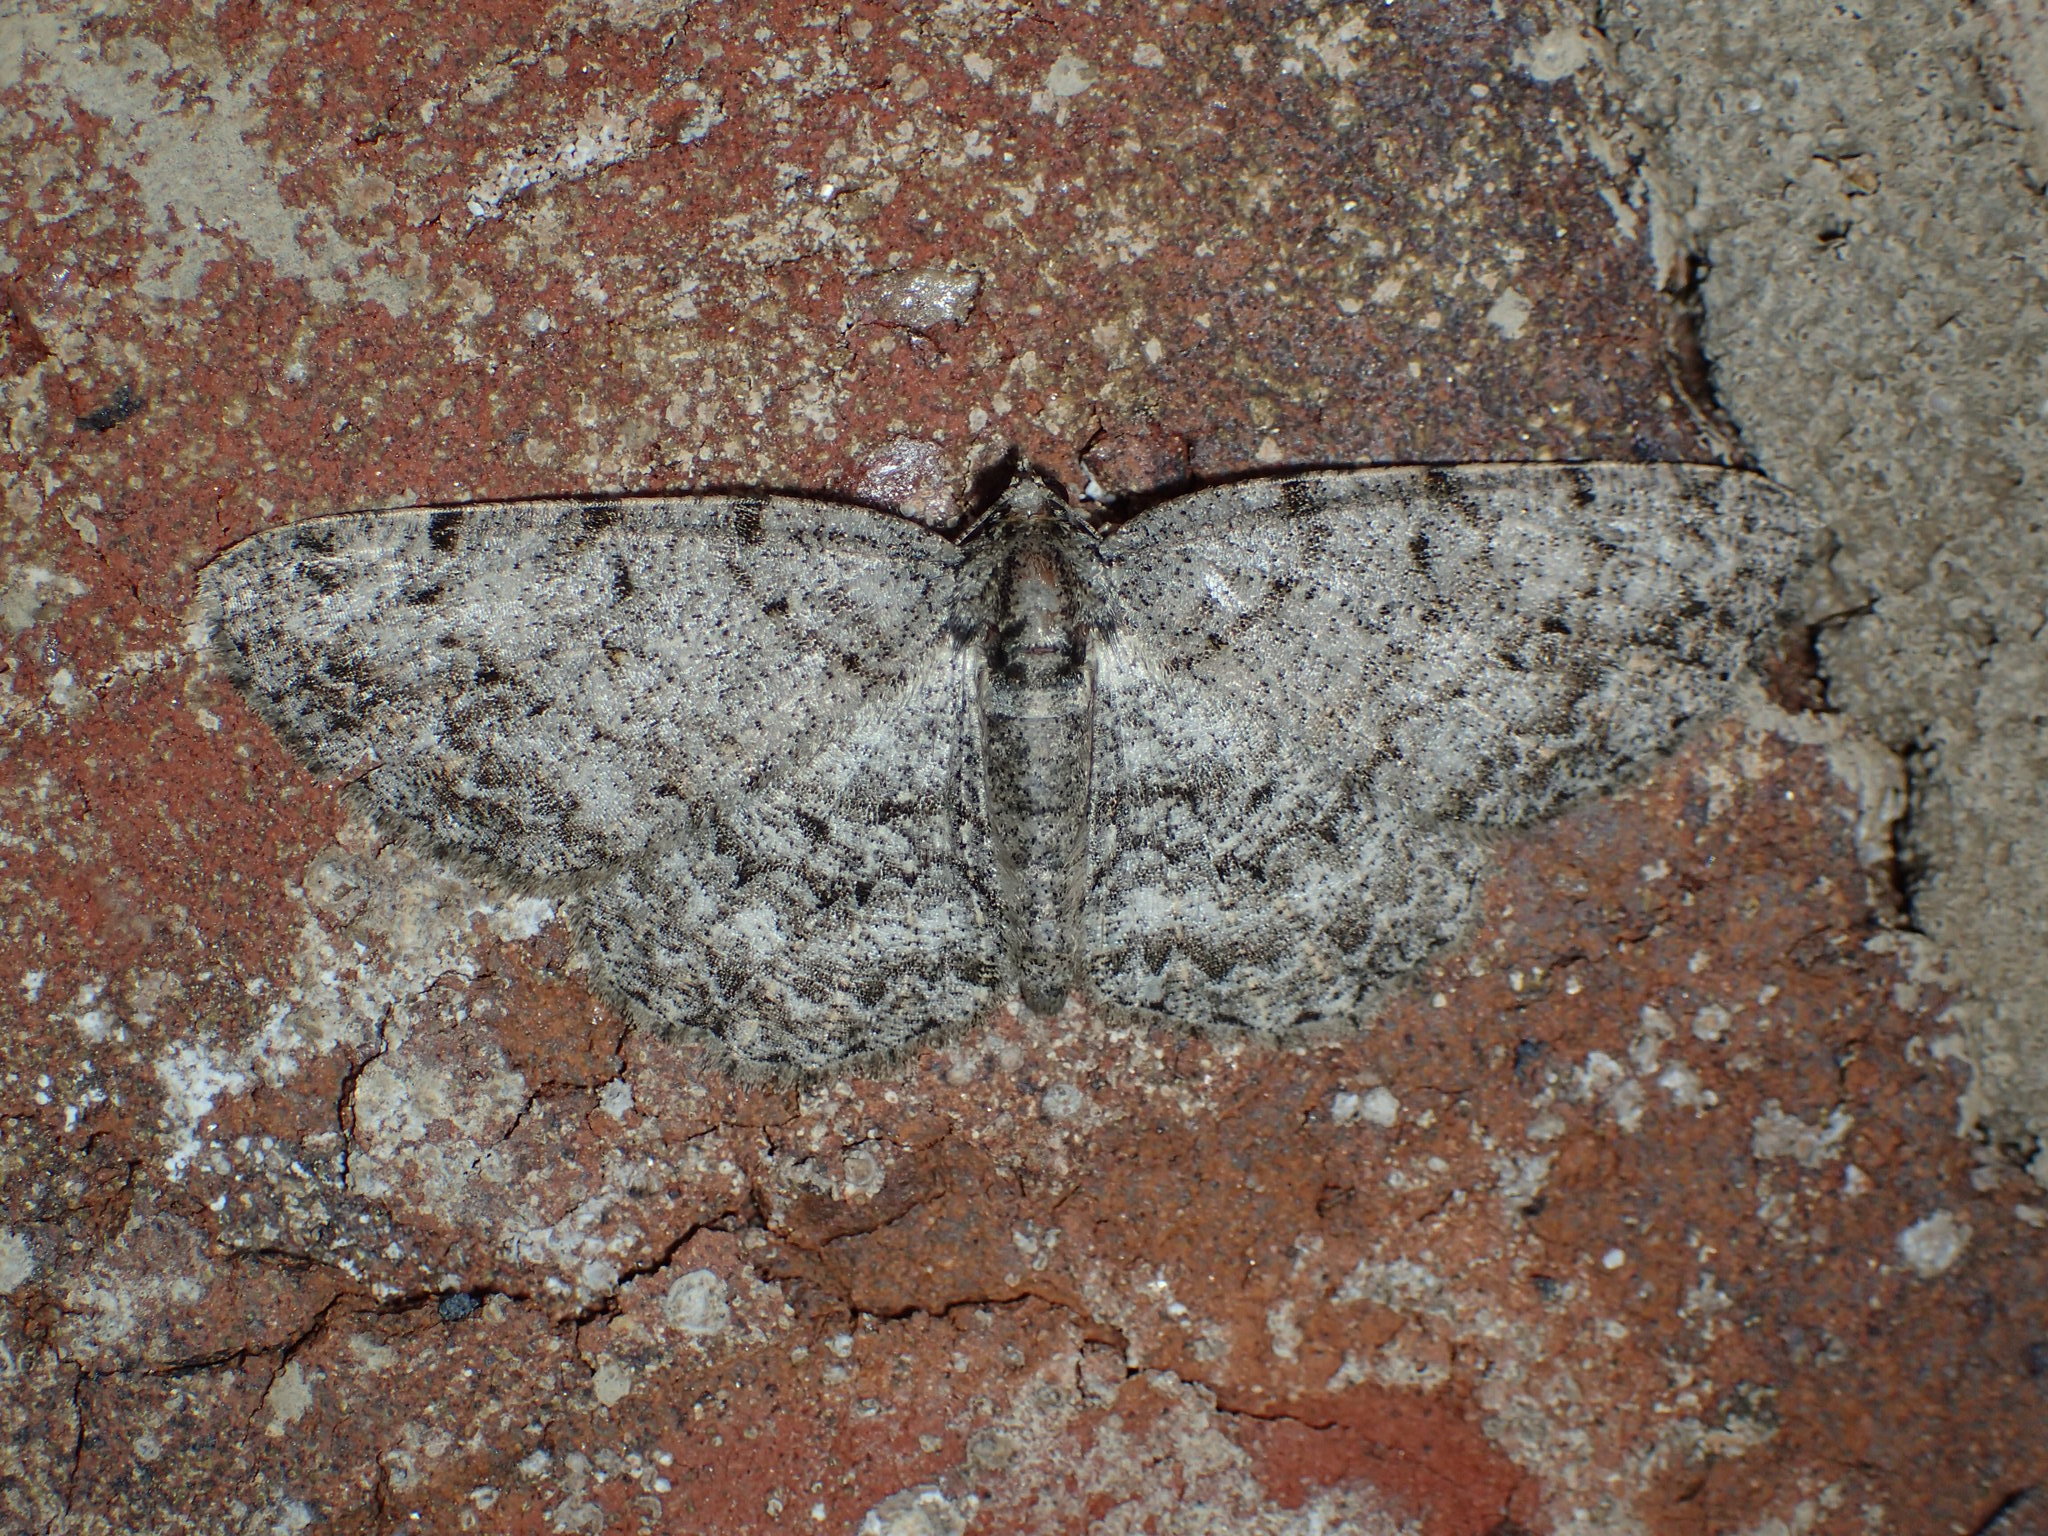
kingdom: Animalia
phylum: Arthropoda
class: Insecta
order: Lepidoptera
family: Geometridae
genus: Protoboarmia
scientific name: Protoboarmia porcelaria
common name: Porcelain gray
